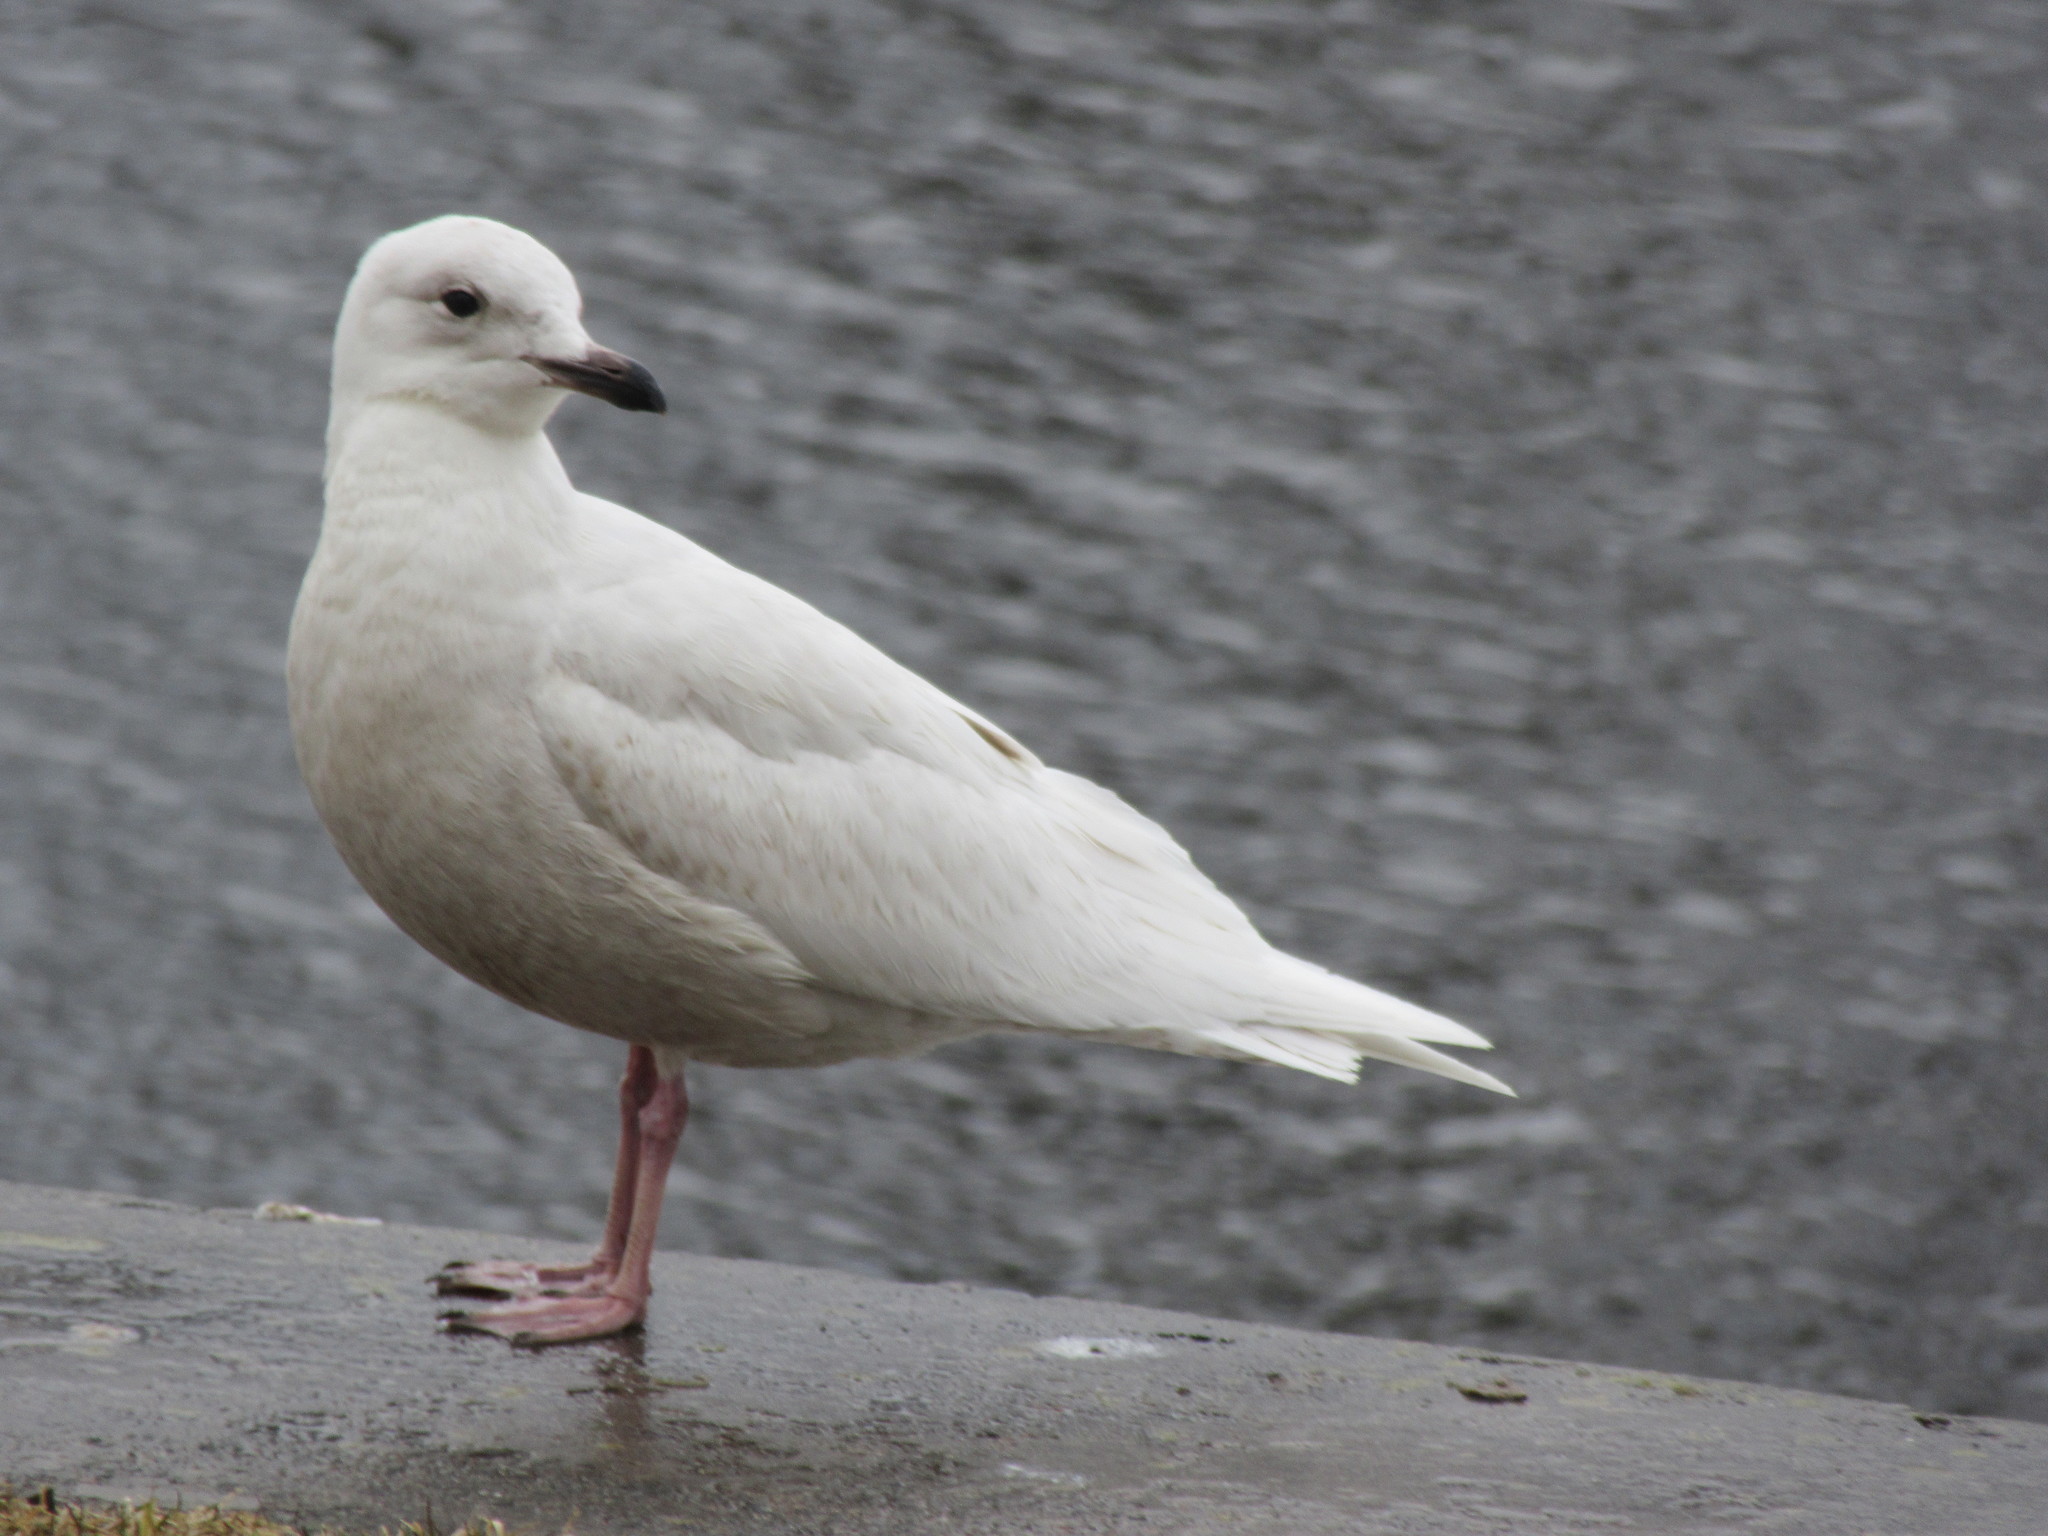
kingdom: Animalia
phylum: Chordata
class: Aves
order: Charadriiformes
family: Laridae
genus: Larus
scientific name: Larus glaucoides
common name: Iceland gull
